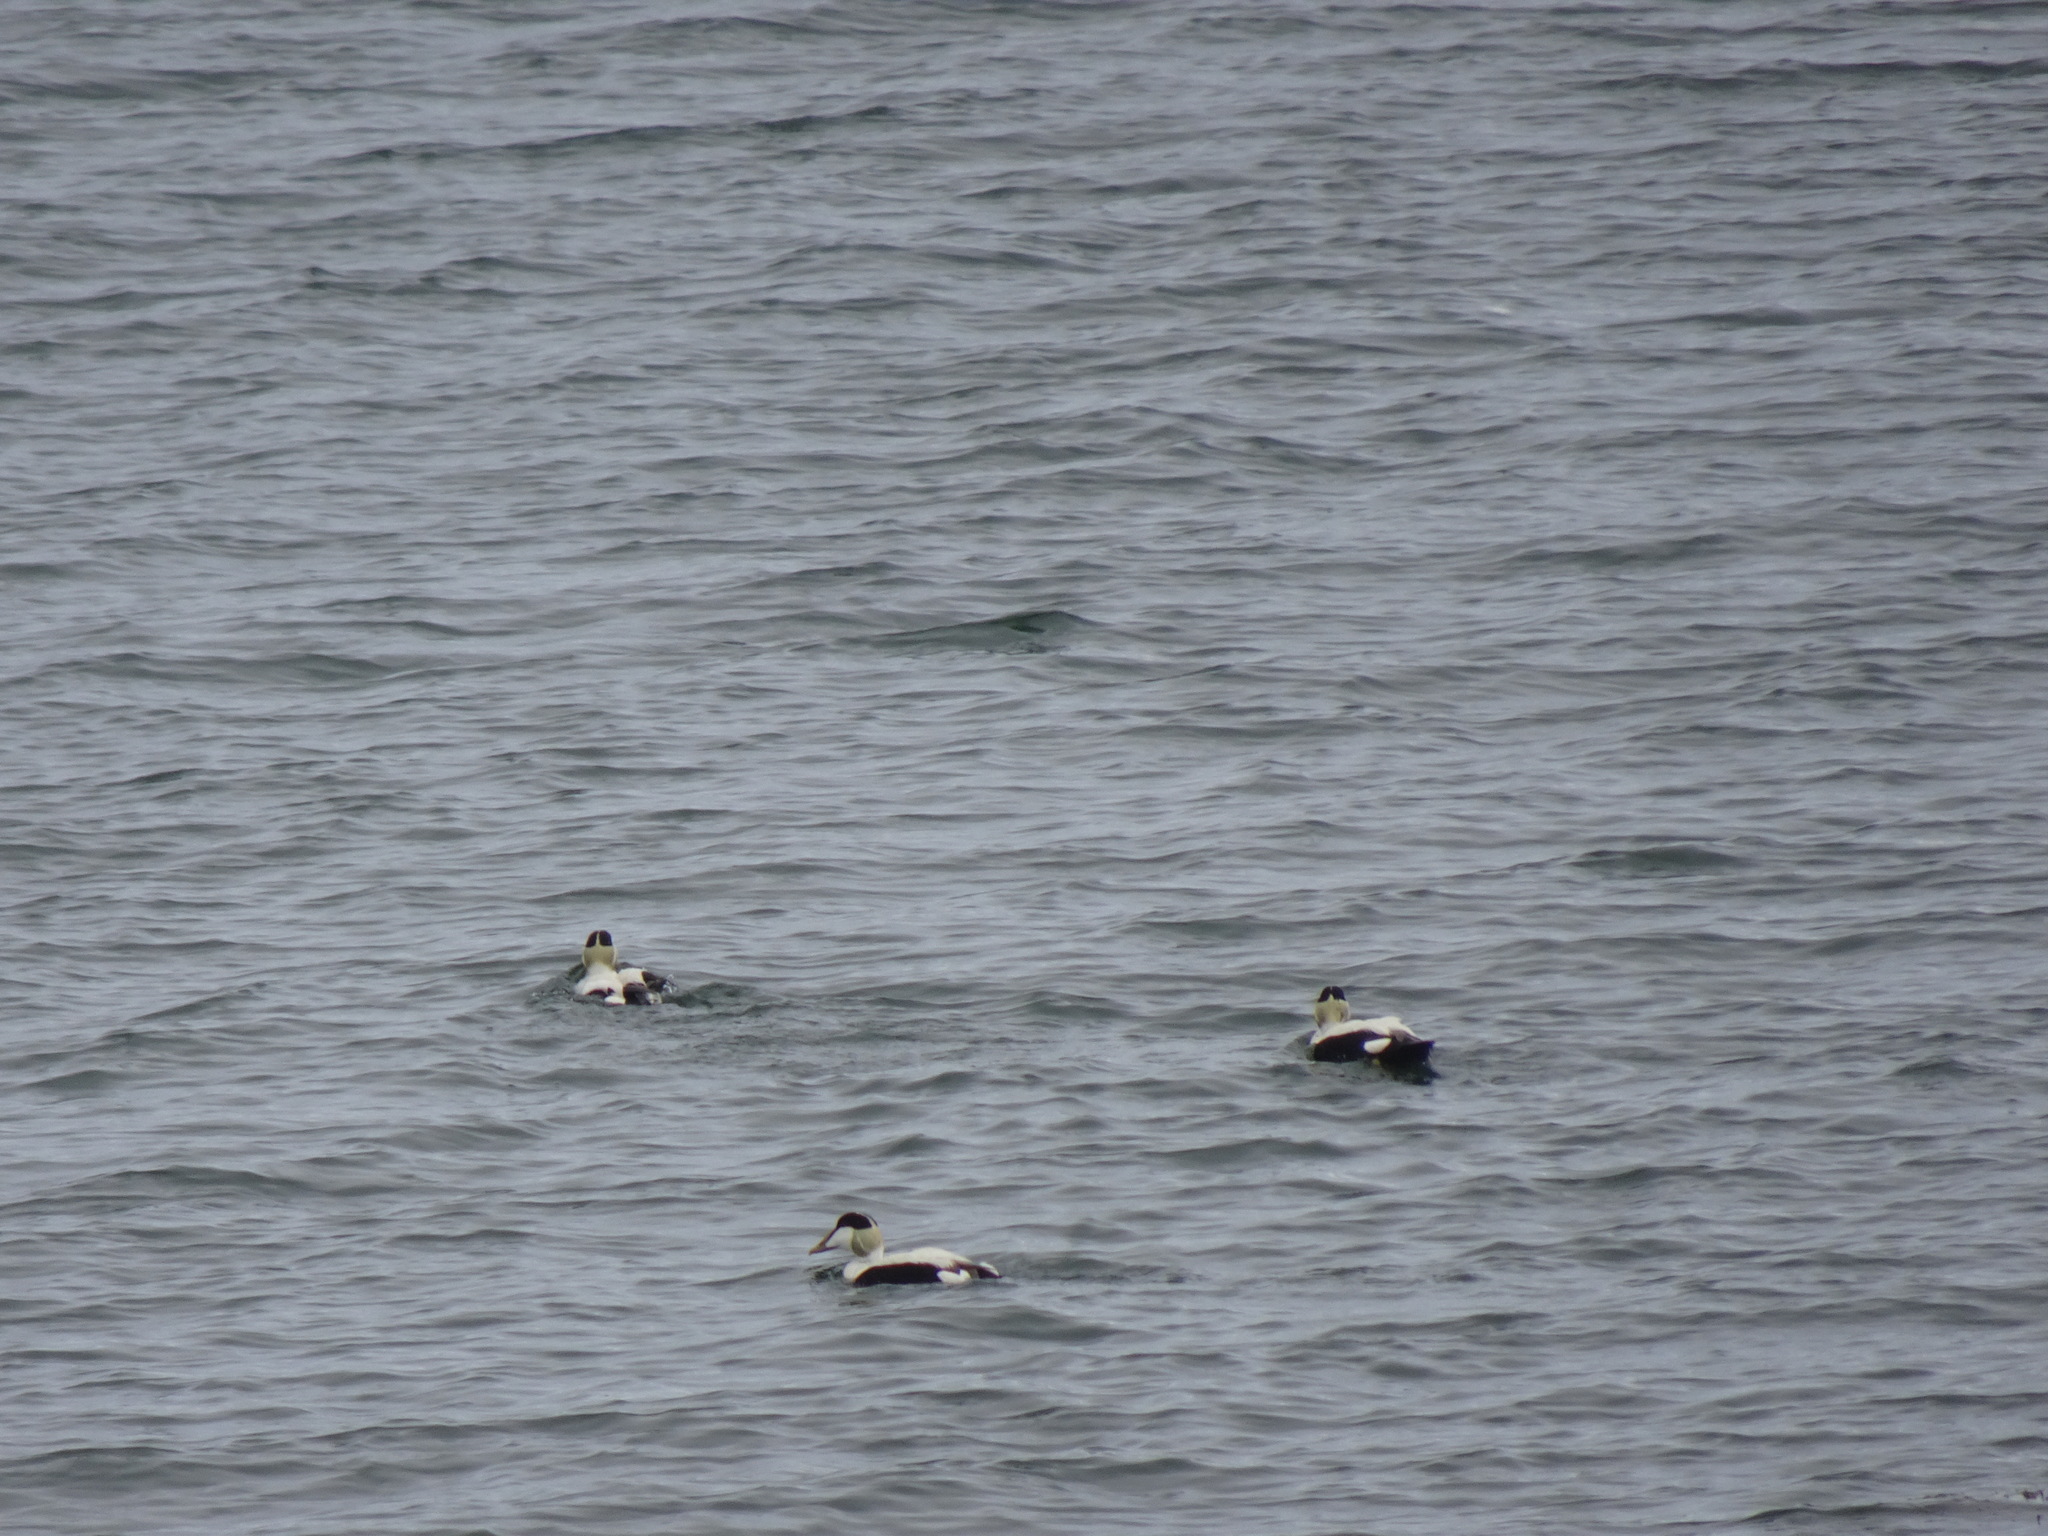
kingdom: Animalia
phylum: Chordata
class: Aves
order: Anseriformes
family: Anatidae
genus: Somateria
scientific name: Somateria mollissima
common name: Common eider
